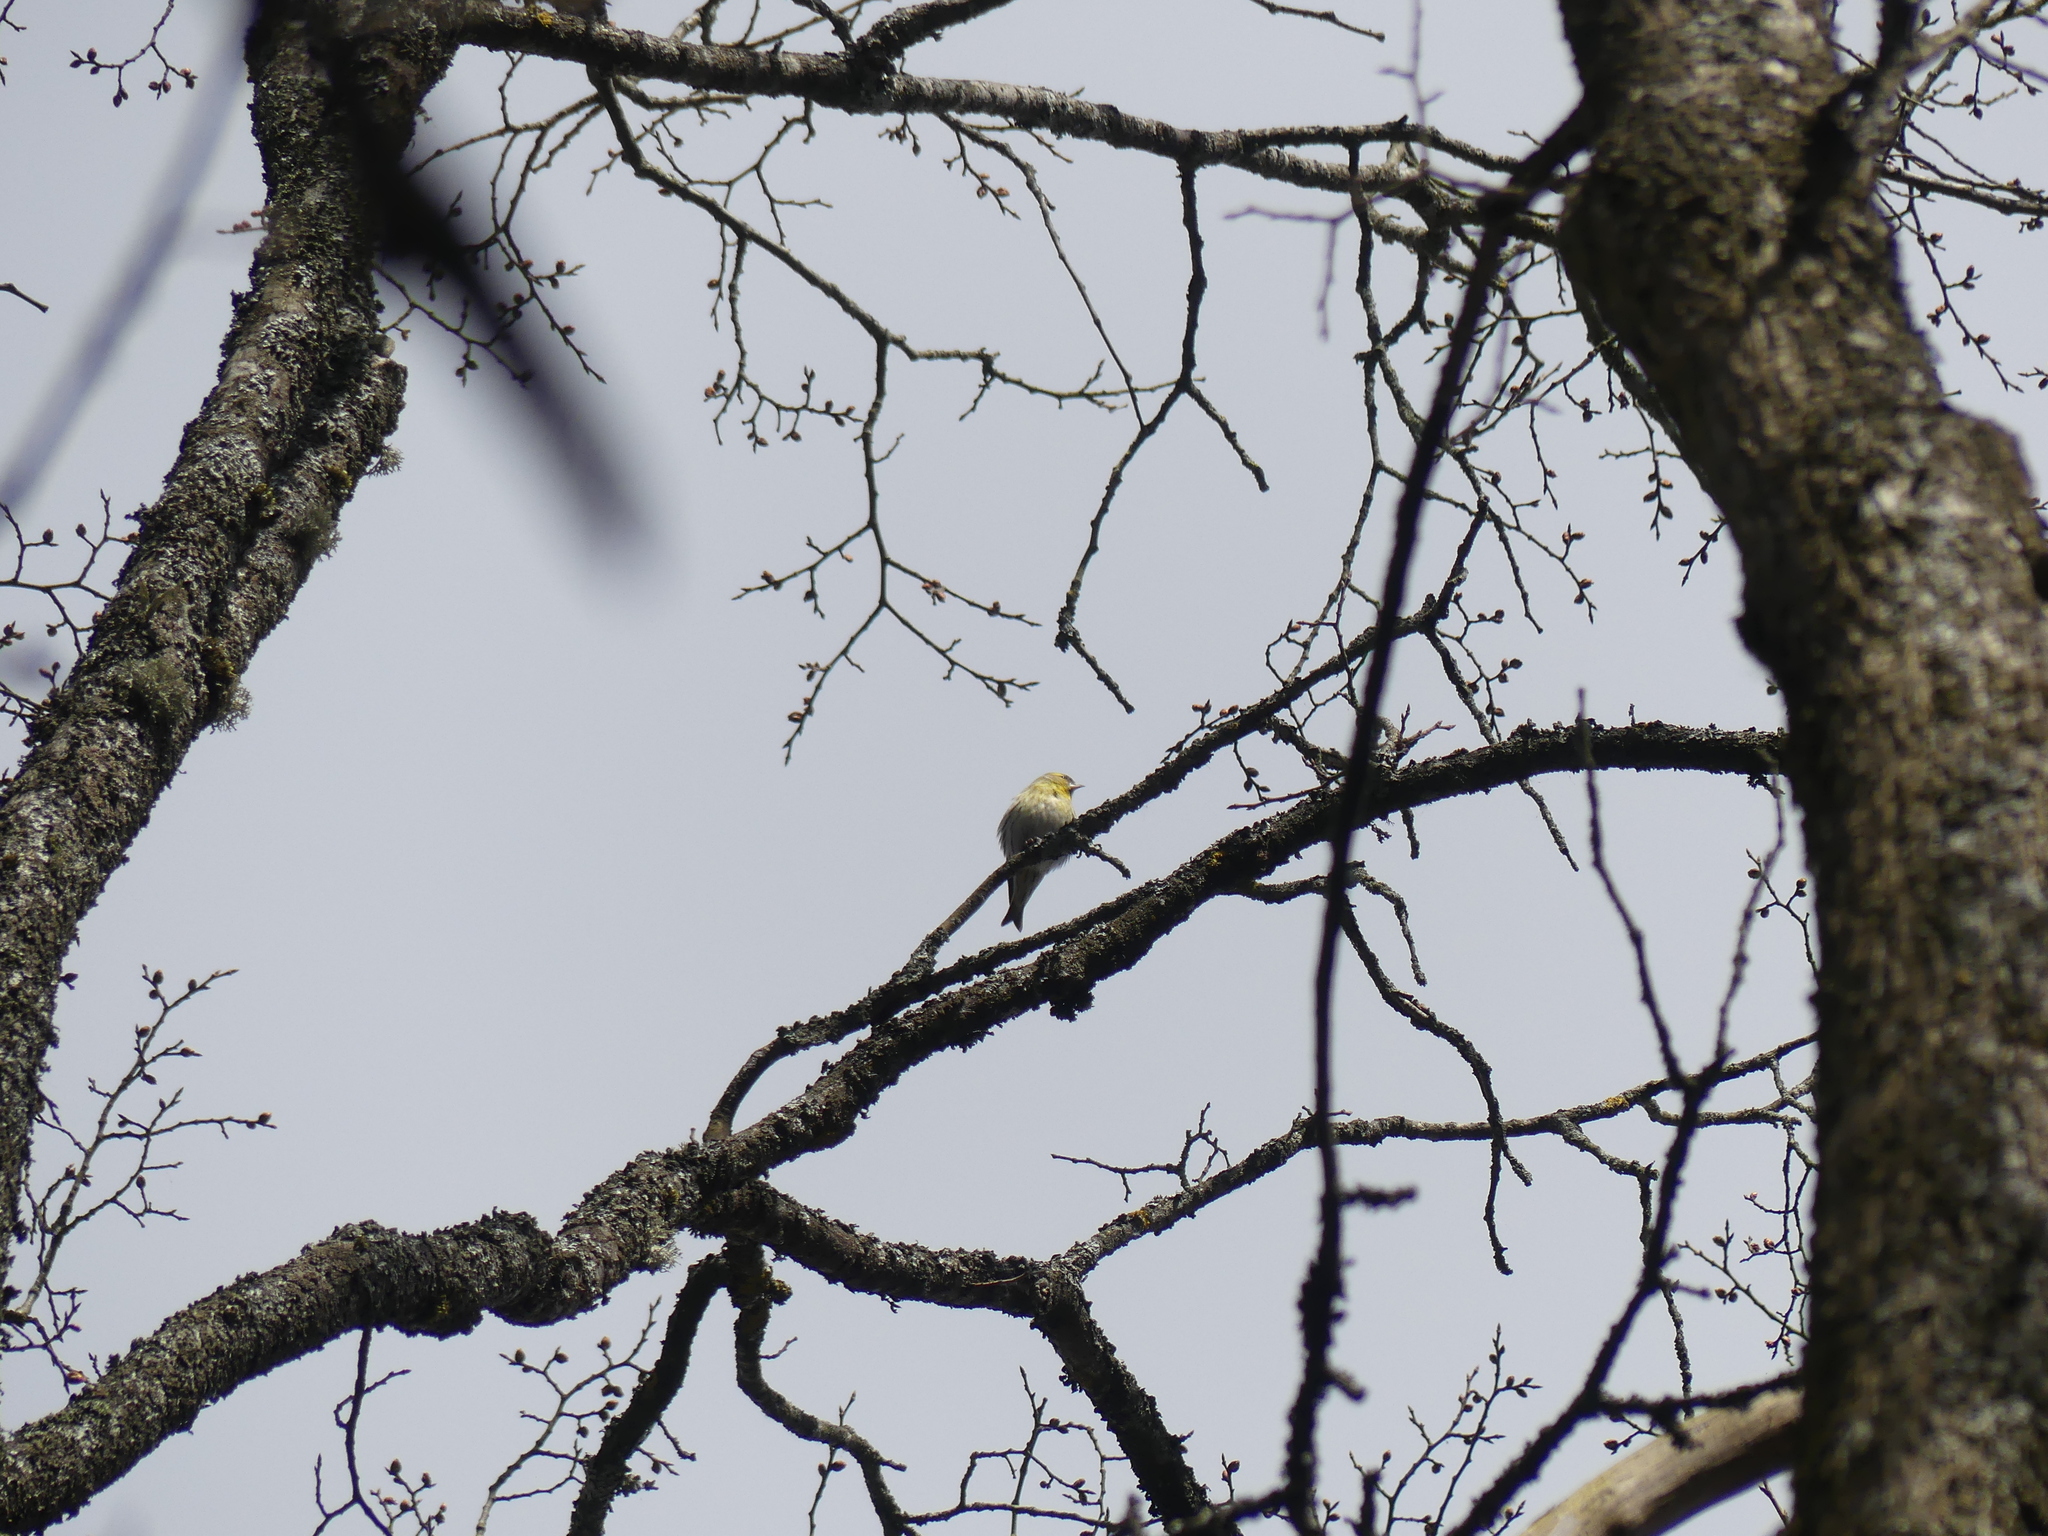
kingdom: Animalia
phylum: Chordata
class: Aves
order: Passeriformes
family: Fringillidae
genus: Spinus
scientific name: Spinus spinus
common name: Eurasian siskin
